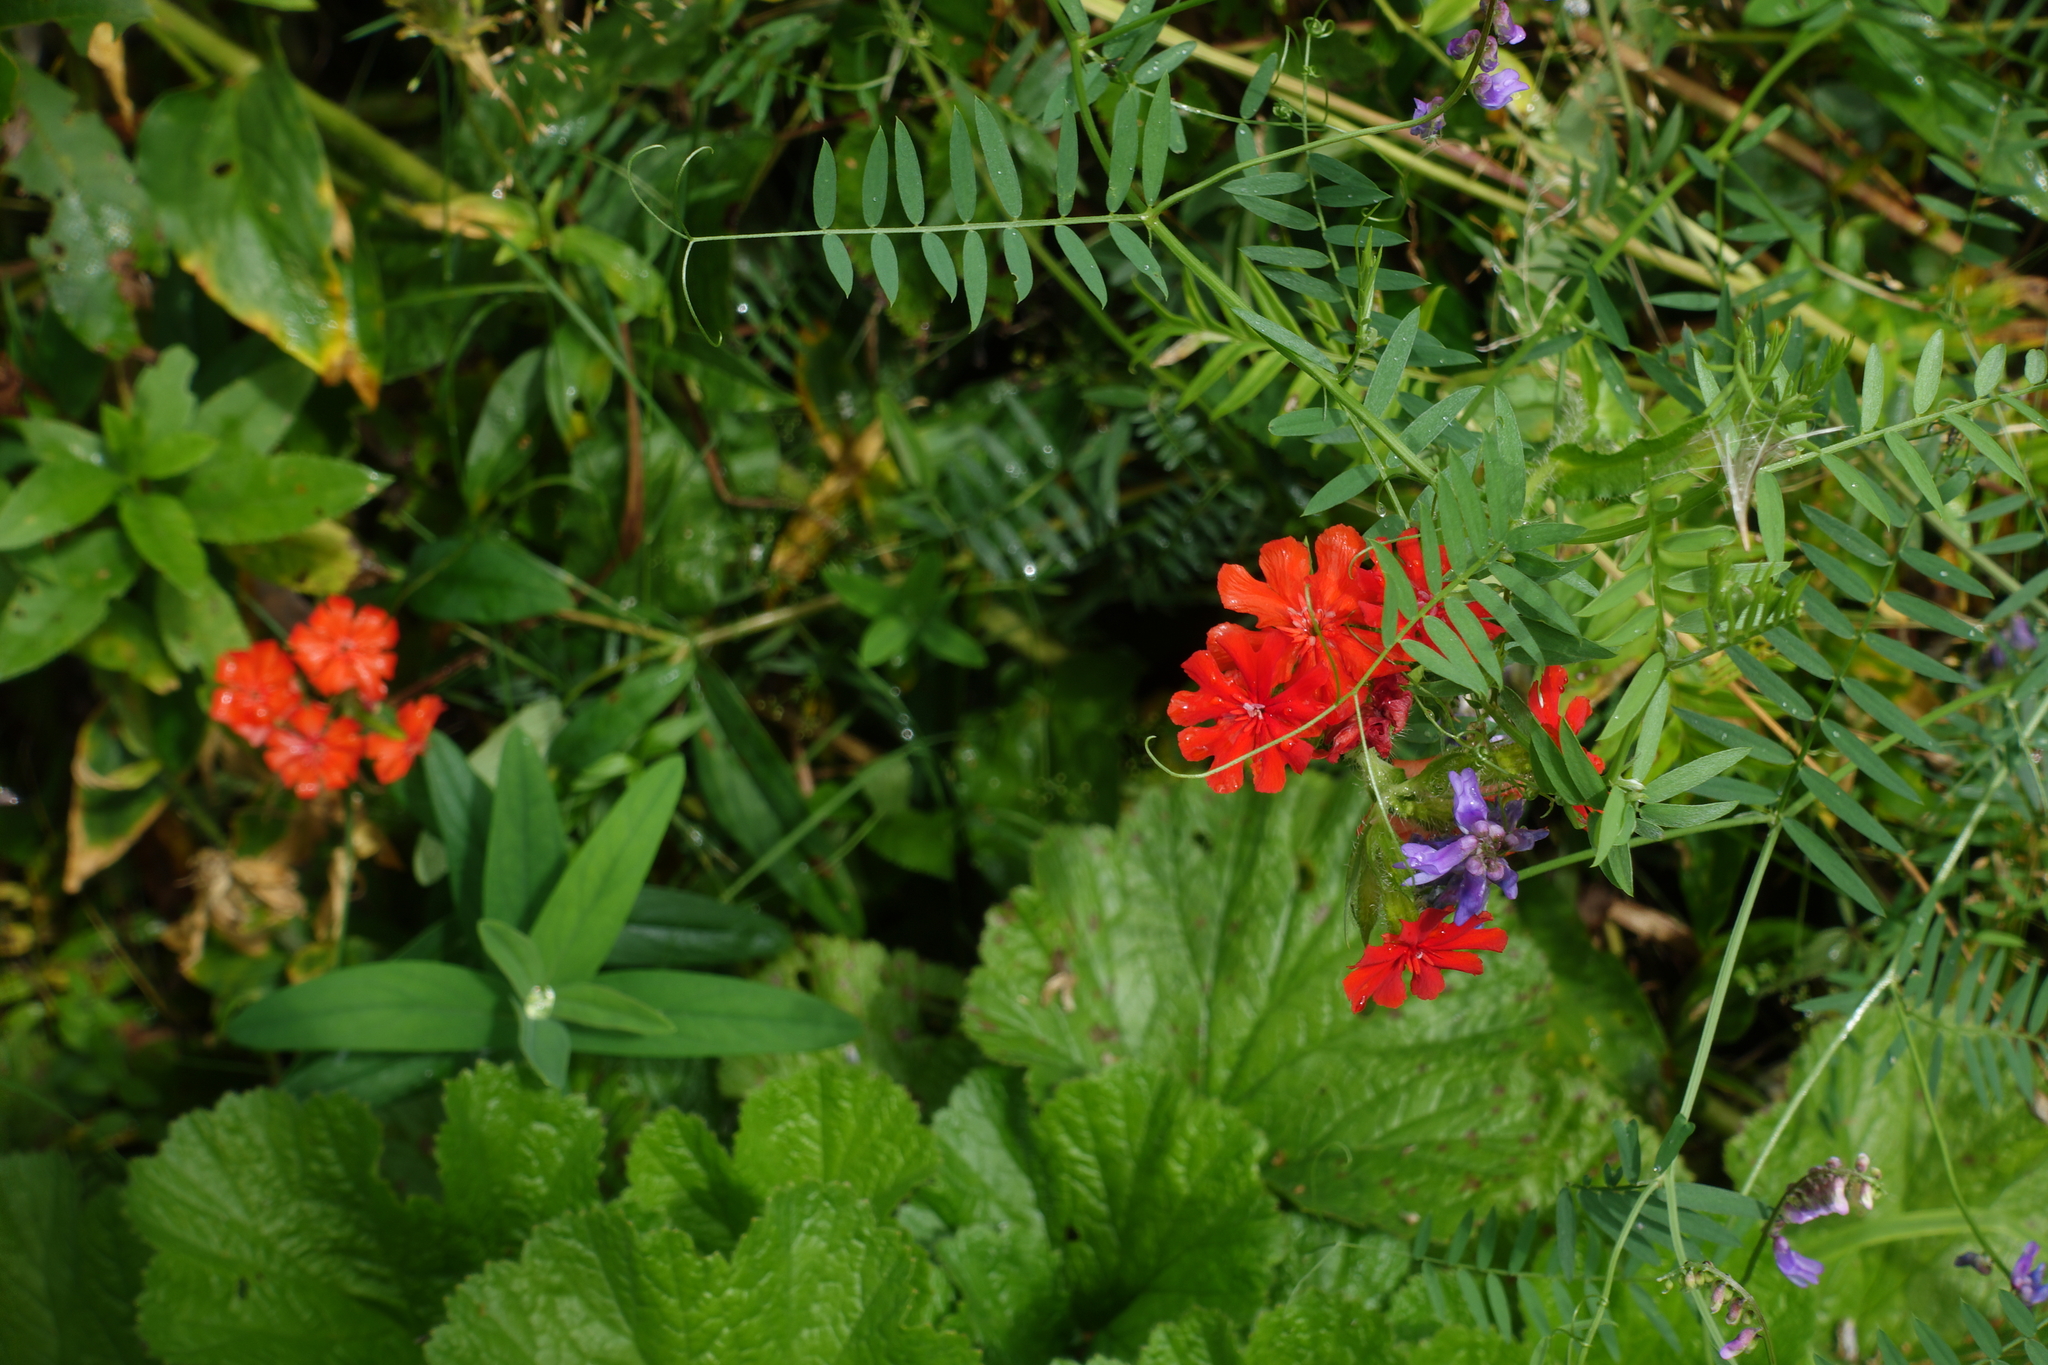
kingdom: Plantae
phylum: Tracheophyta
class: Magnoliopsida
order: Caryophyllales
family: Caryophyllaceae
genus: Silene
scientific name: Silene chalcedonica
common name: Maltese-cross
